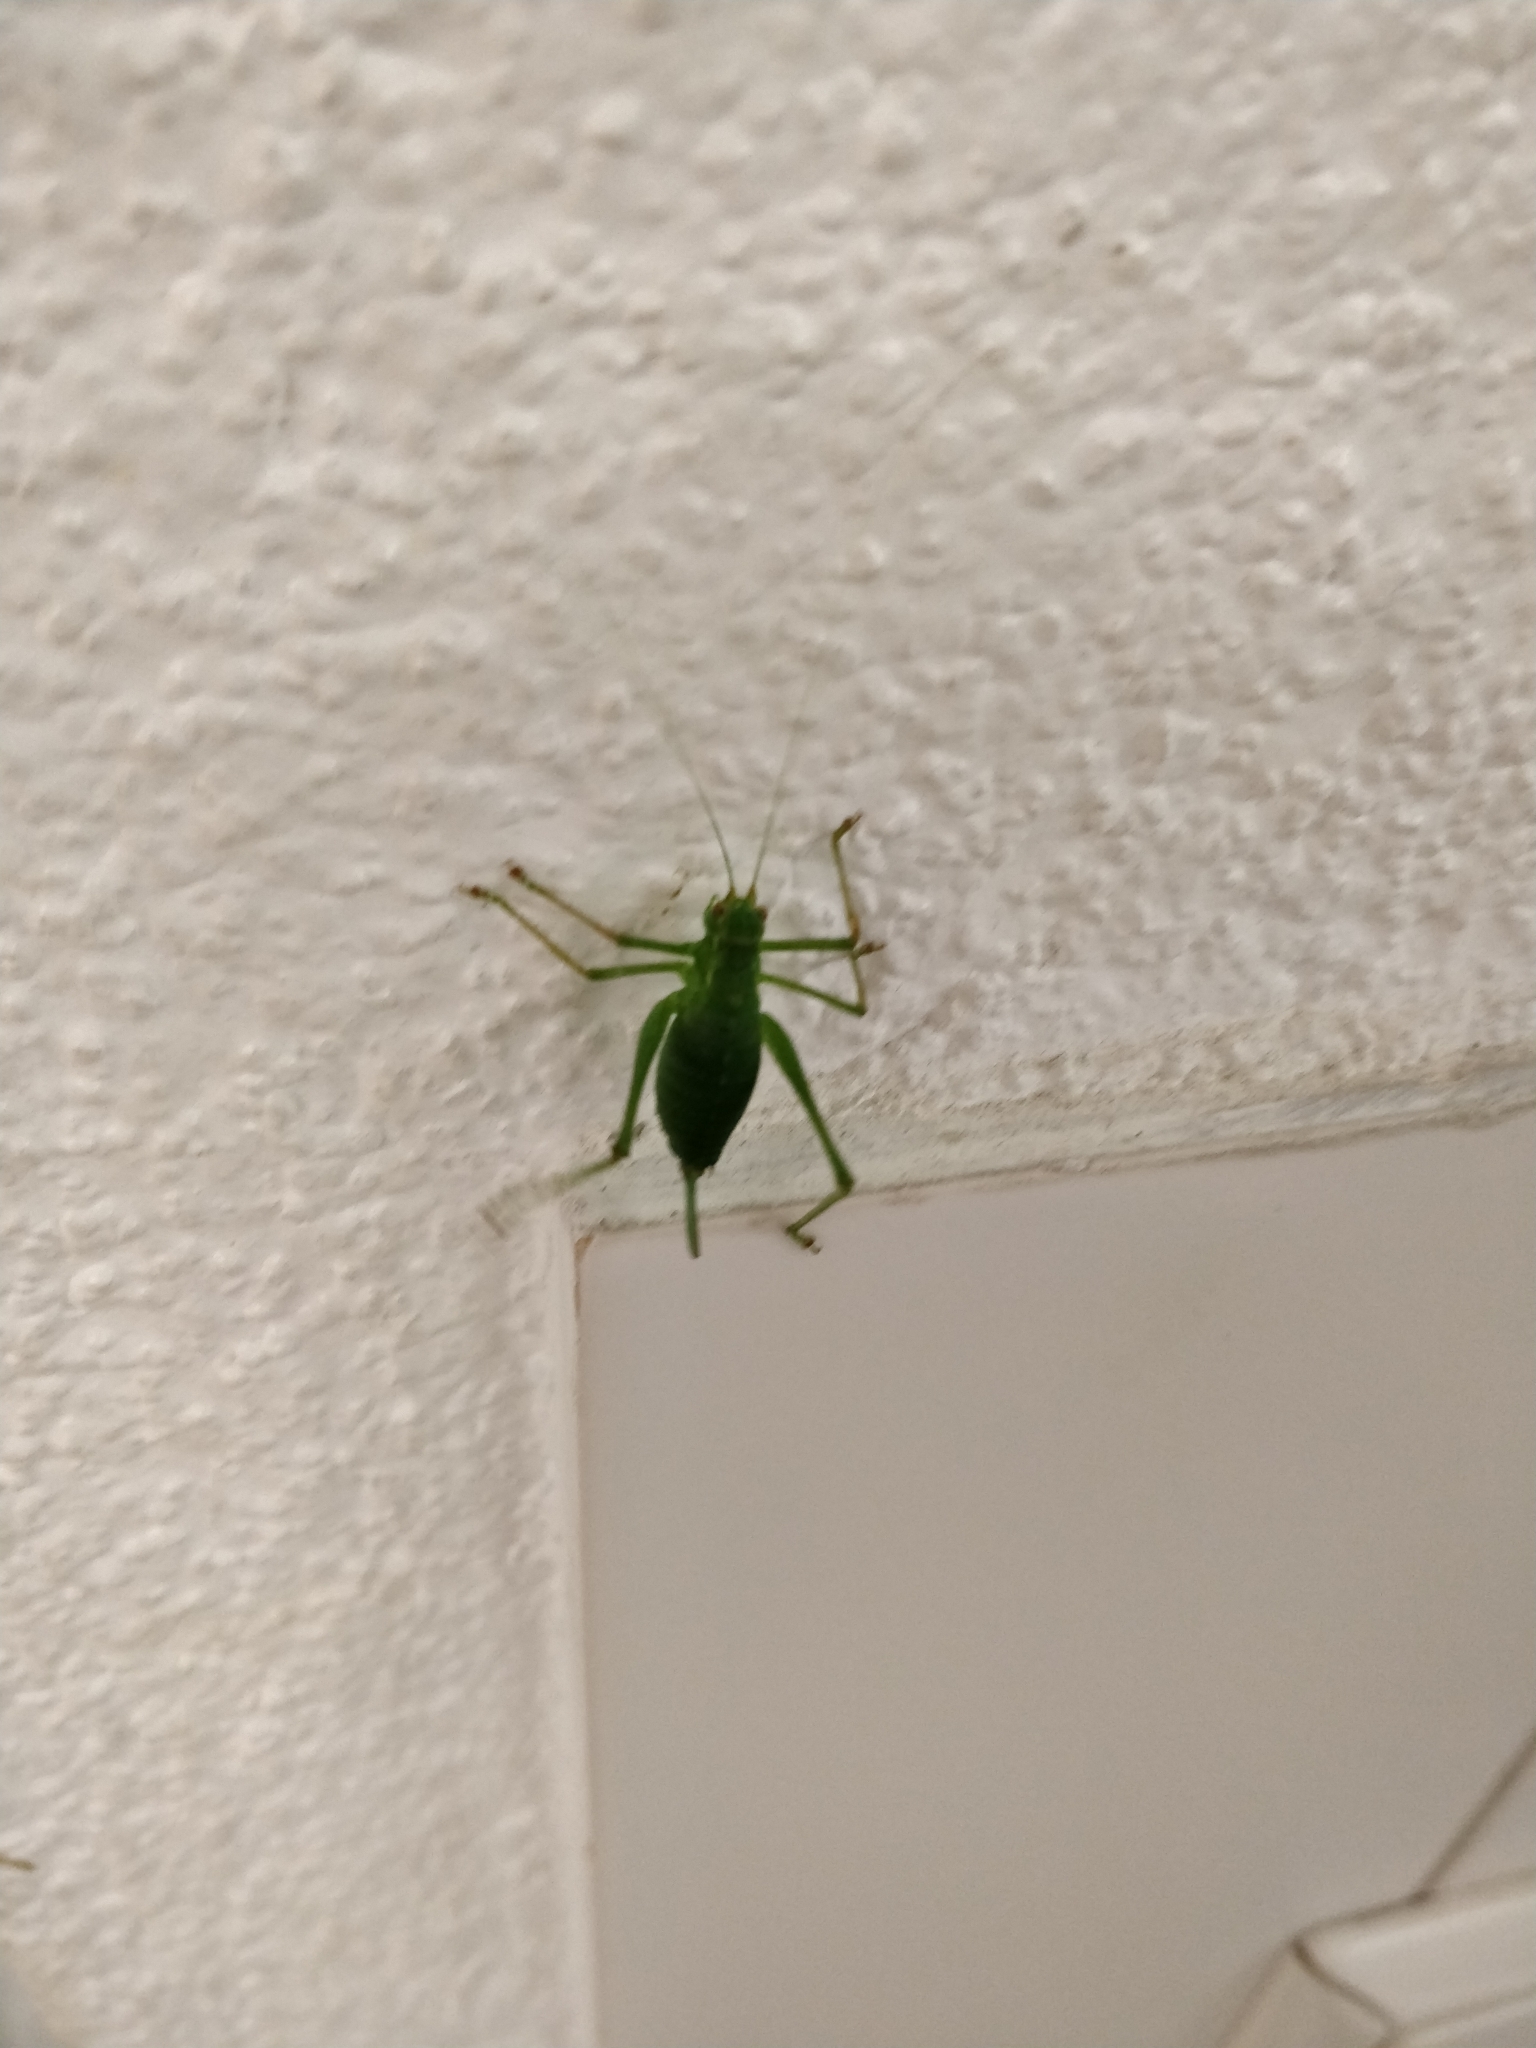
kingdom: Animalia
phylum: Arthropoda
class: Insecta
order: Orthoptera
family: Tettigoniidae
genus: Leptophyes
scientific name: Leptophyes punctatissima
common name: Speckled bush-cricket
